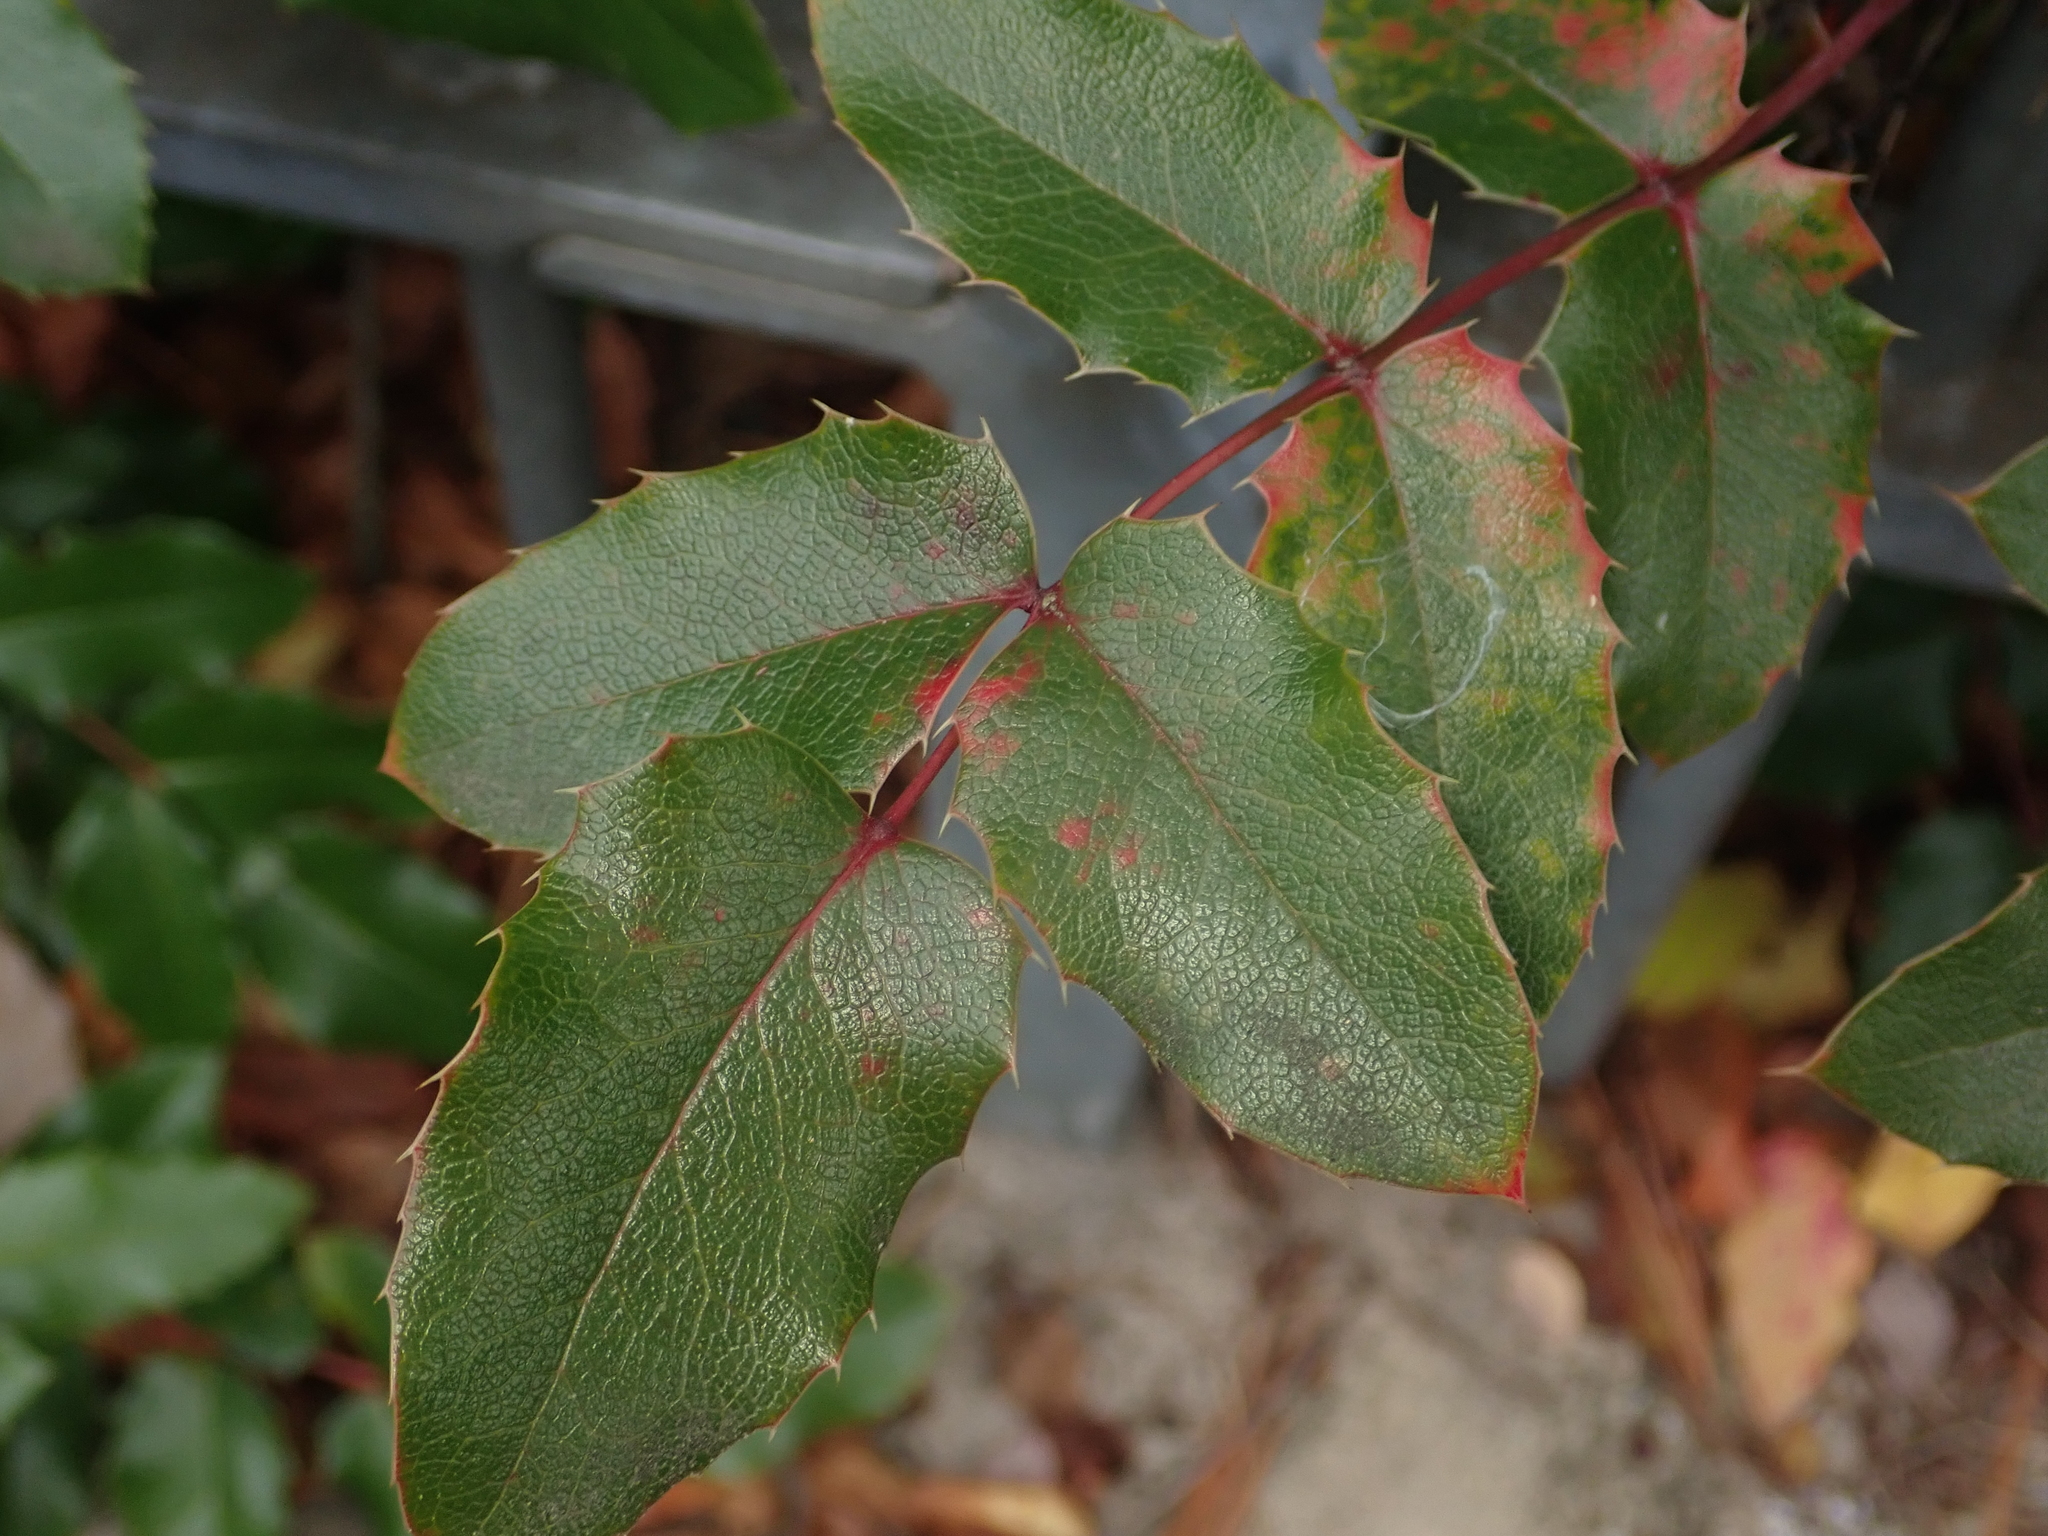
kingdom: Plantae
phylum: Tracheophyta
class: Magnoliopsida
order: Ranunculales
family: Berberidaceae
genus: Mahonia
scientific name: Mahonia aquifolium
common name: Oregon-grape
